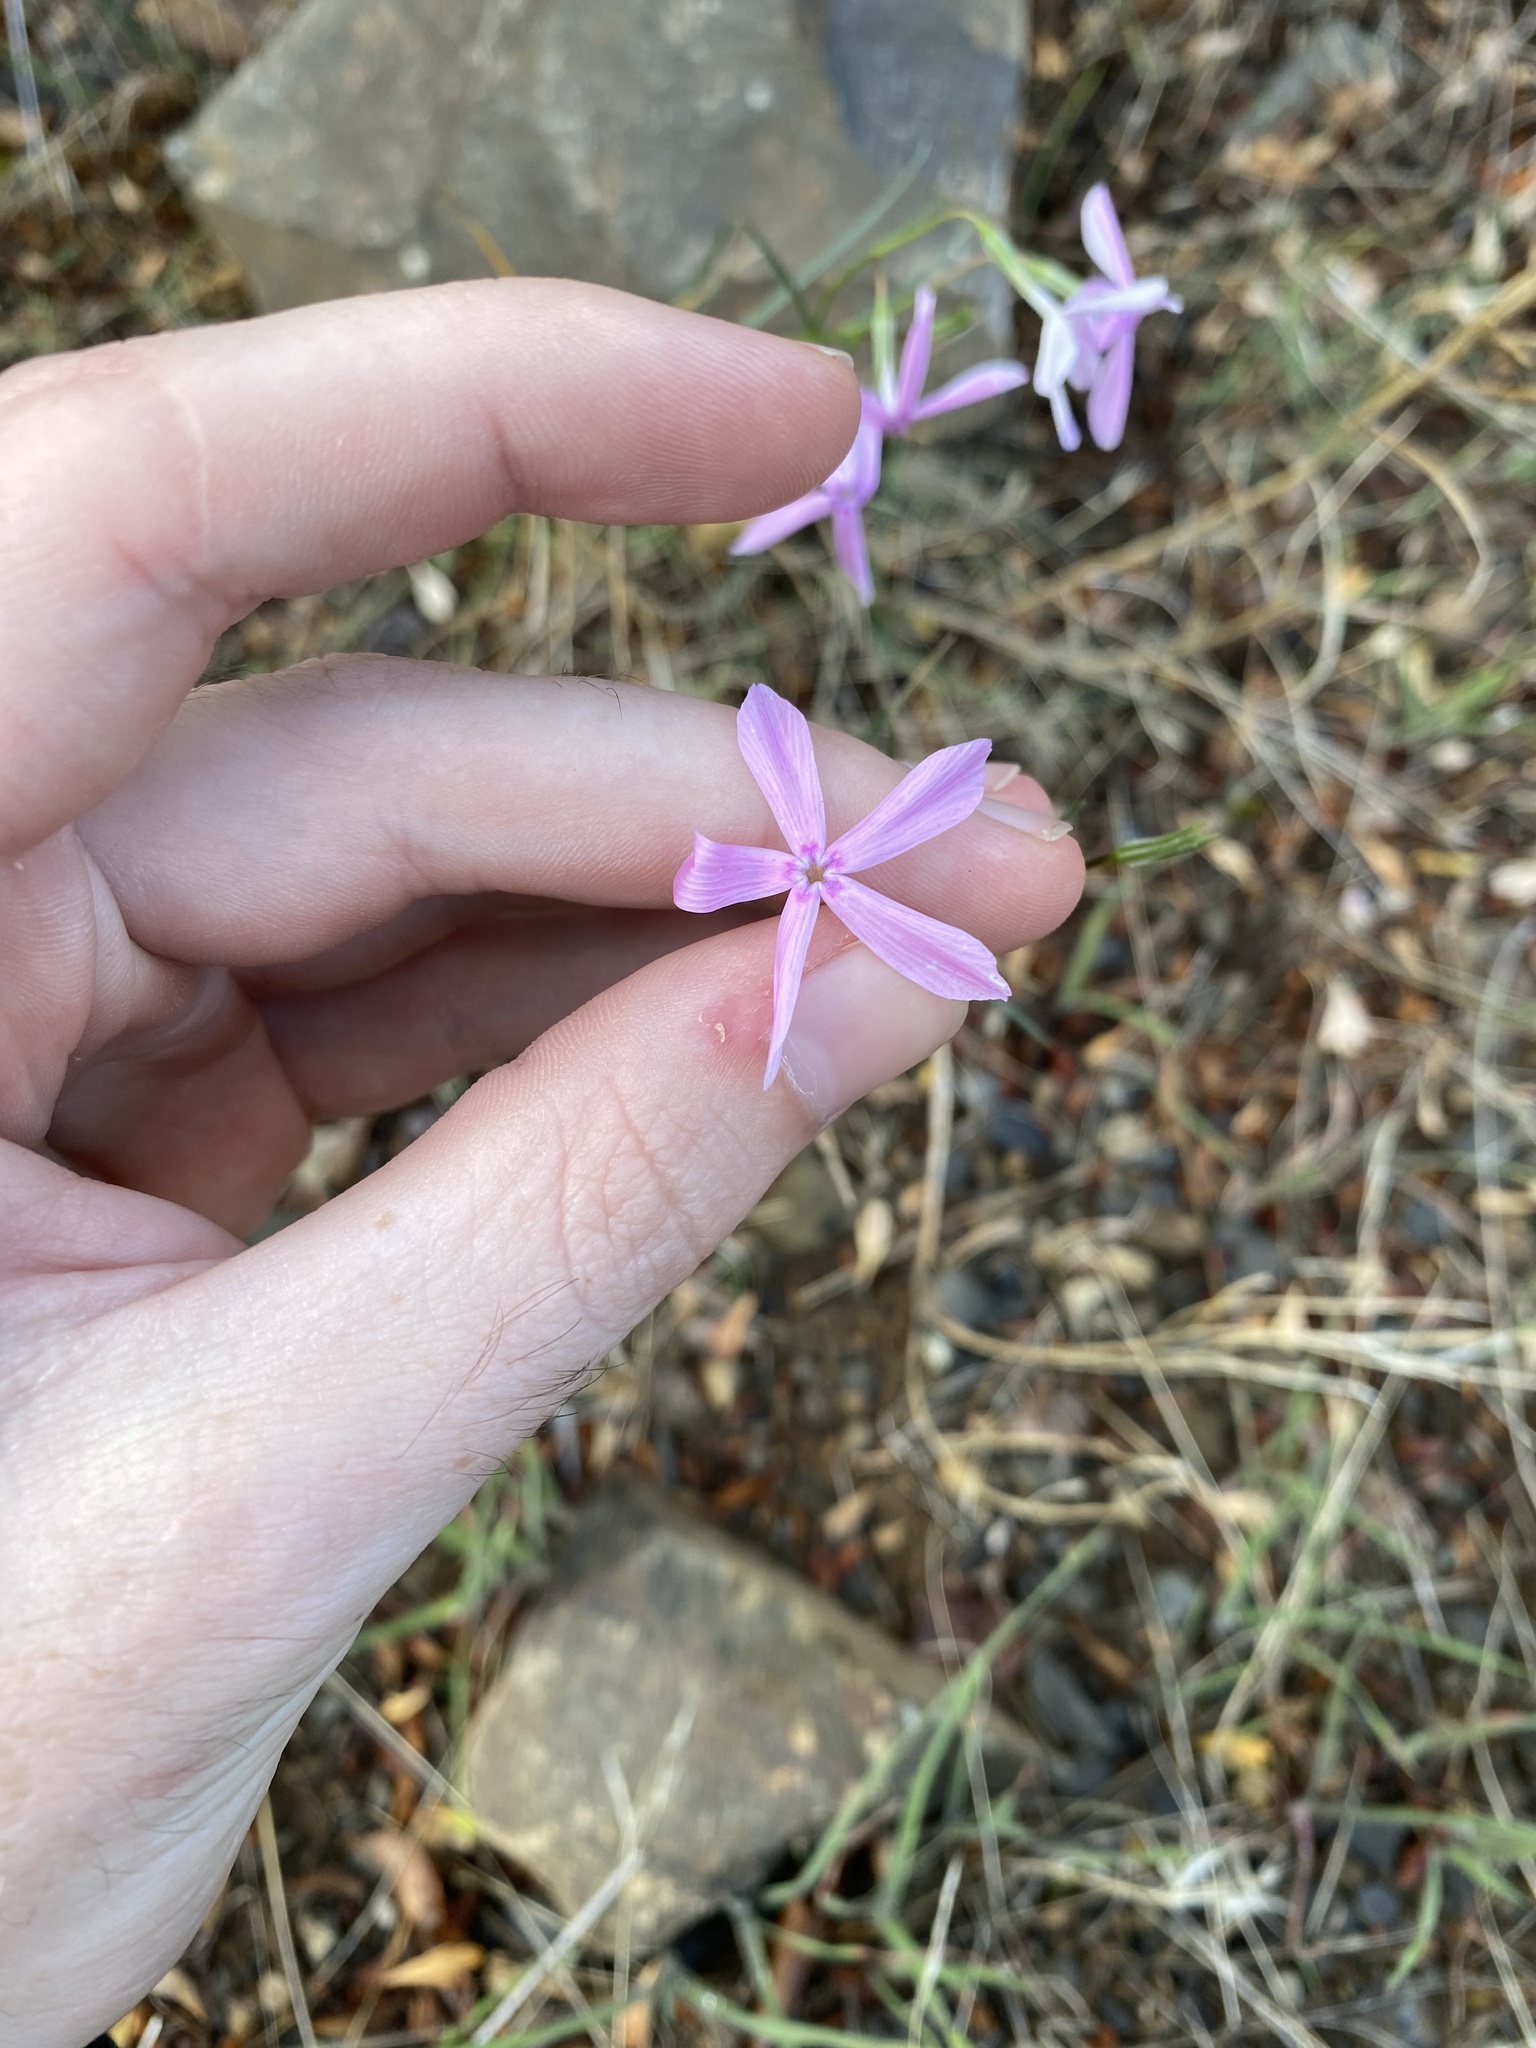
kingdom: Plantae
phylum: Tracheophyta
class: Magnoliopsida
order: Ericales
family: Polemoniaceae
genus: Phlox
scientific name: Phlox colubrina
